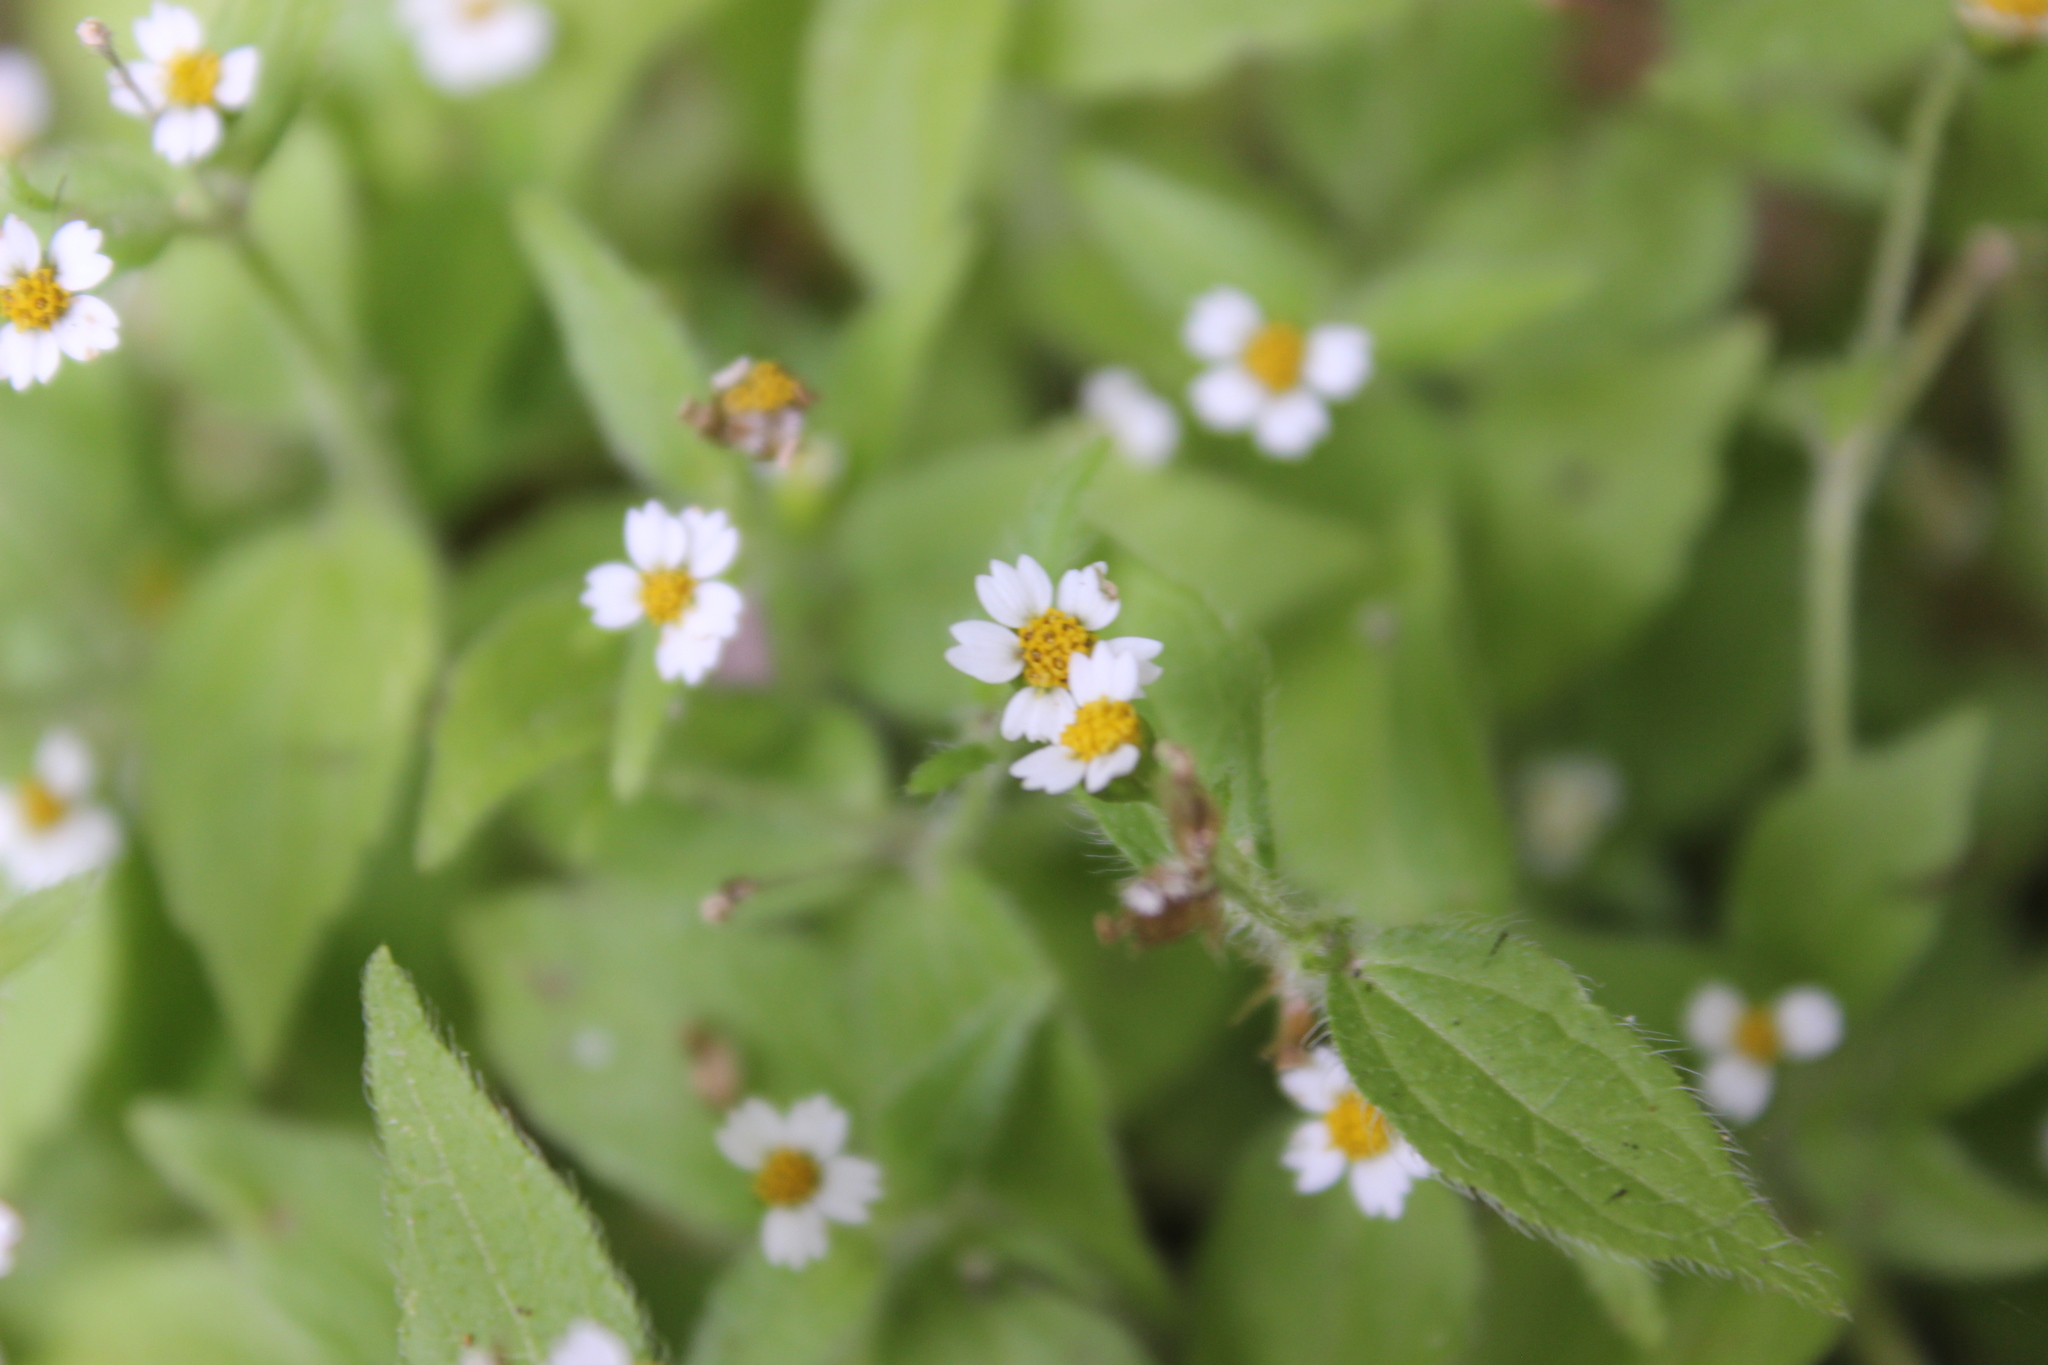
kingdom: Plantae
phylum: Tracheophyta
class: Magnoliopsida
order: Asterales
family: Asteraceae
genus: Galinsoga
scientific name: Galinsoga quadriradiata
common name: Shaggy soldier
